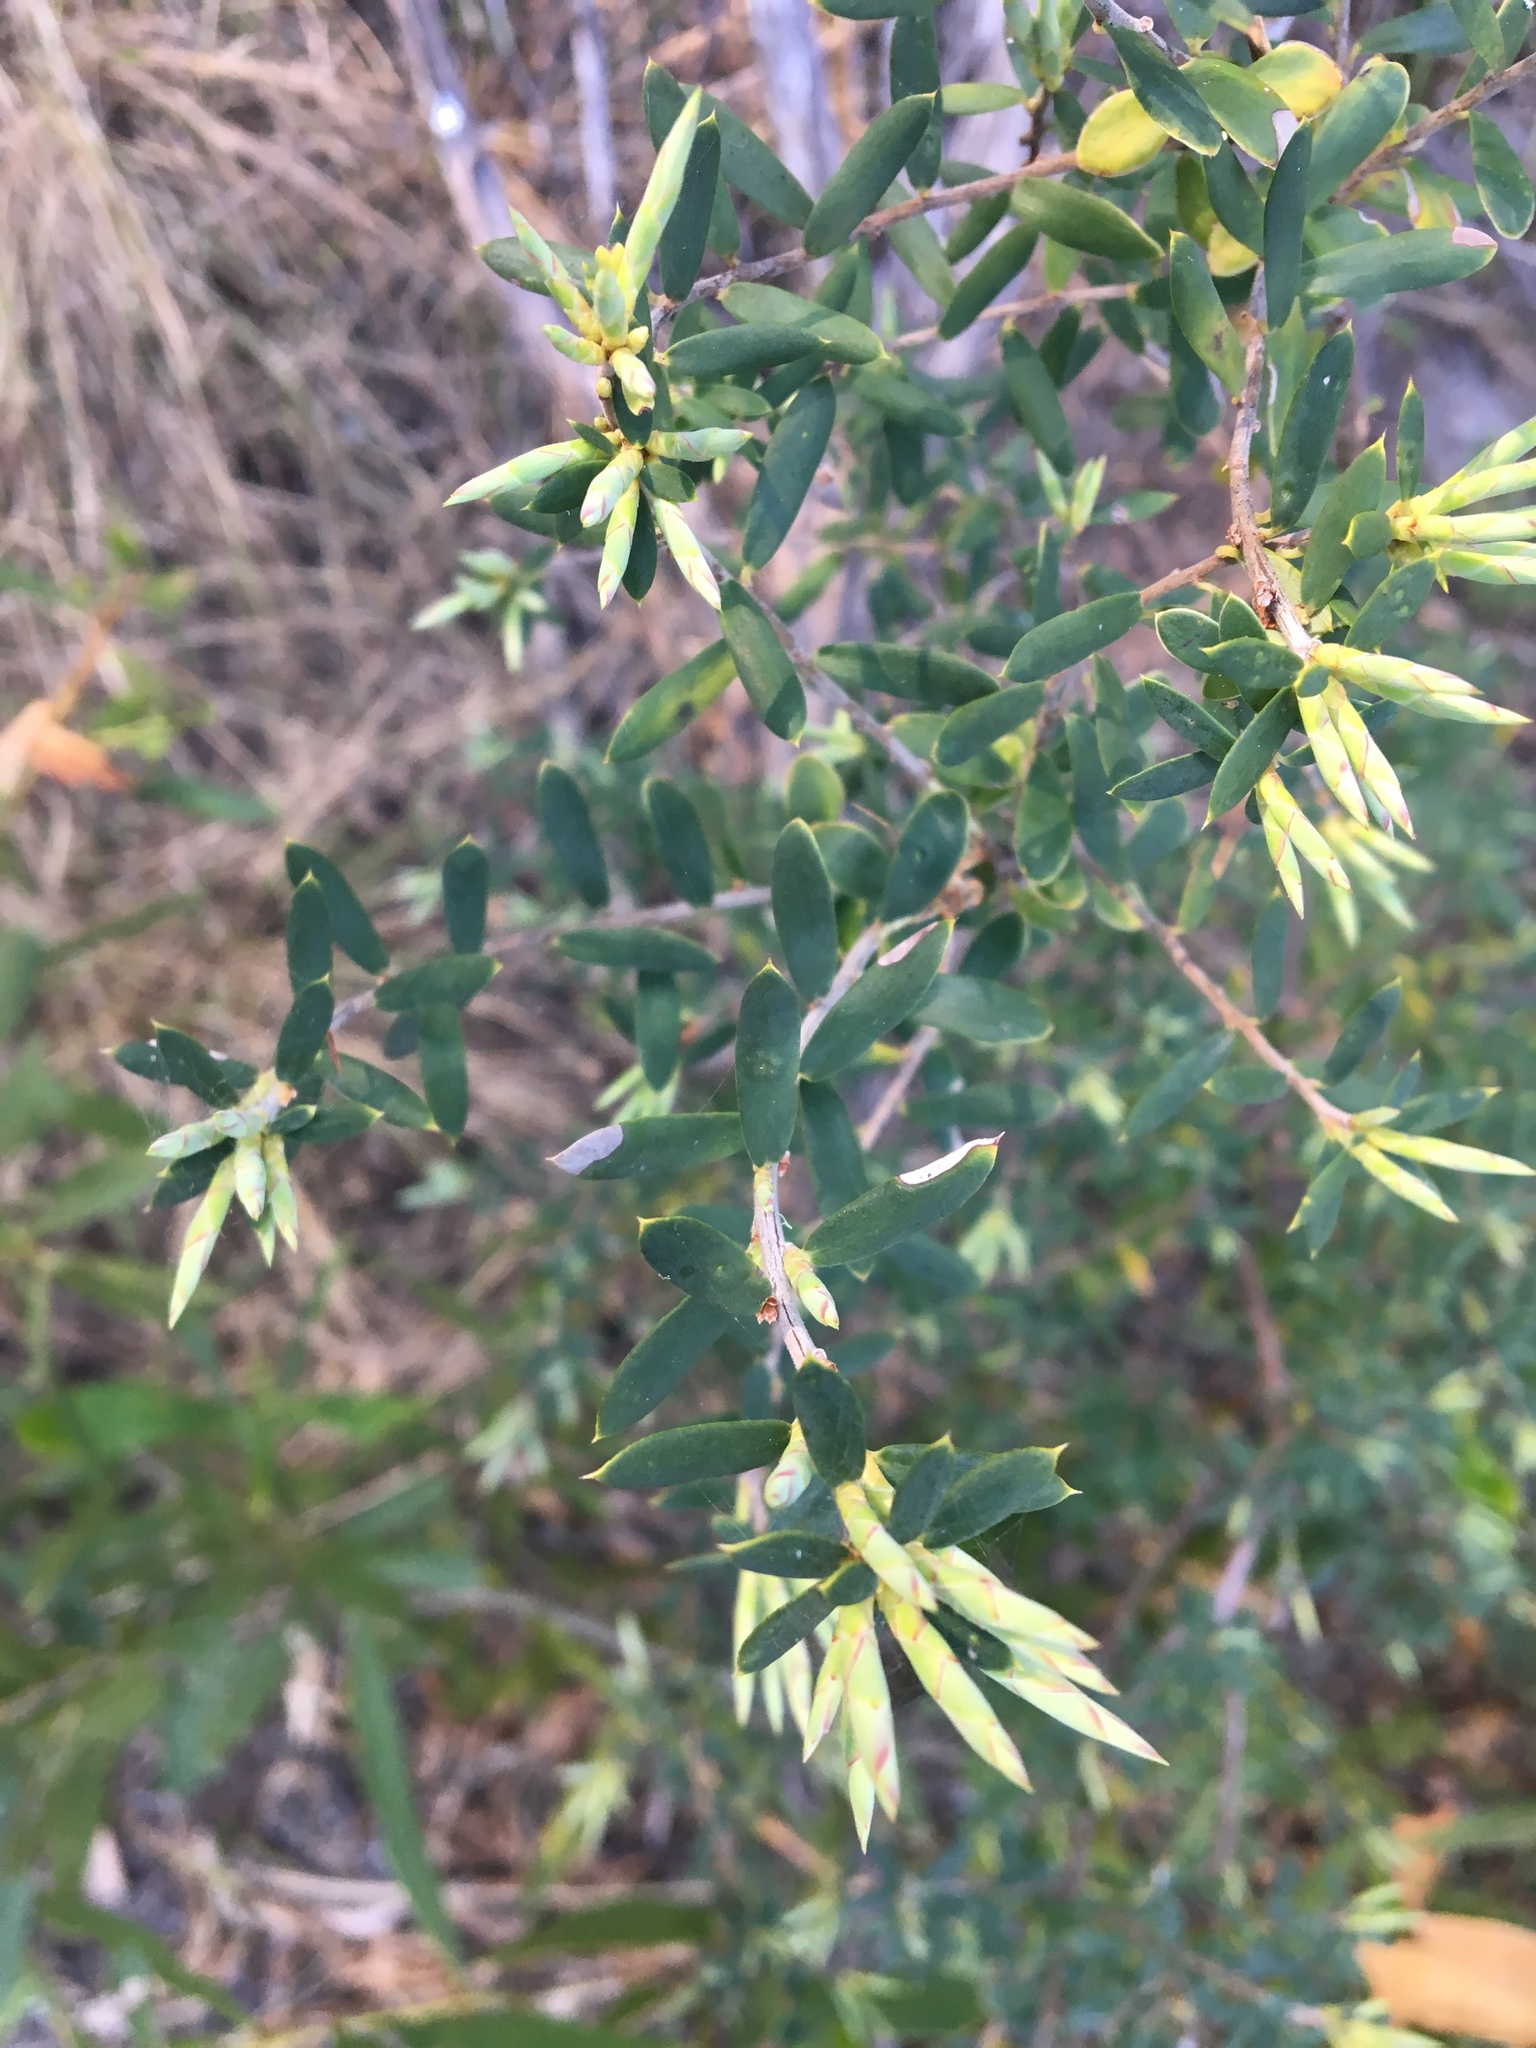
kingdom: Plantae
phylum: Tracheophyta
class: Magnoliopsida
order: Ericales
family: Ericaceae
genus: Monotoca
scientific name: Monotoca elliptica
